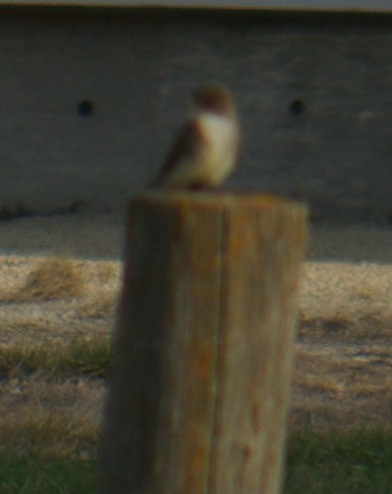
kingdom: Animalia
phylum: Chordata
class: Aves
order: Passeriformes
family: Tyrannidae
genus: Sayornis
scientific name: Sayornis phoebe
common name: Eastern phoebe
